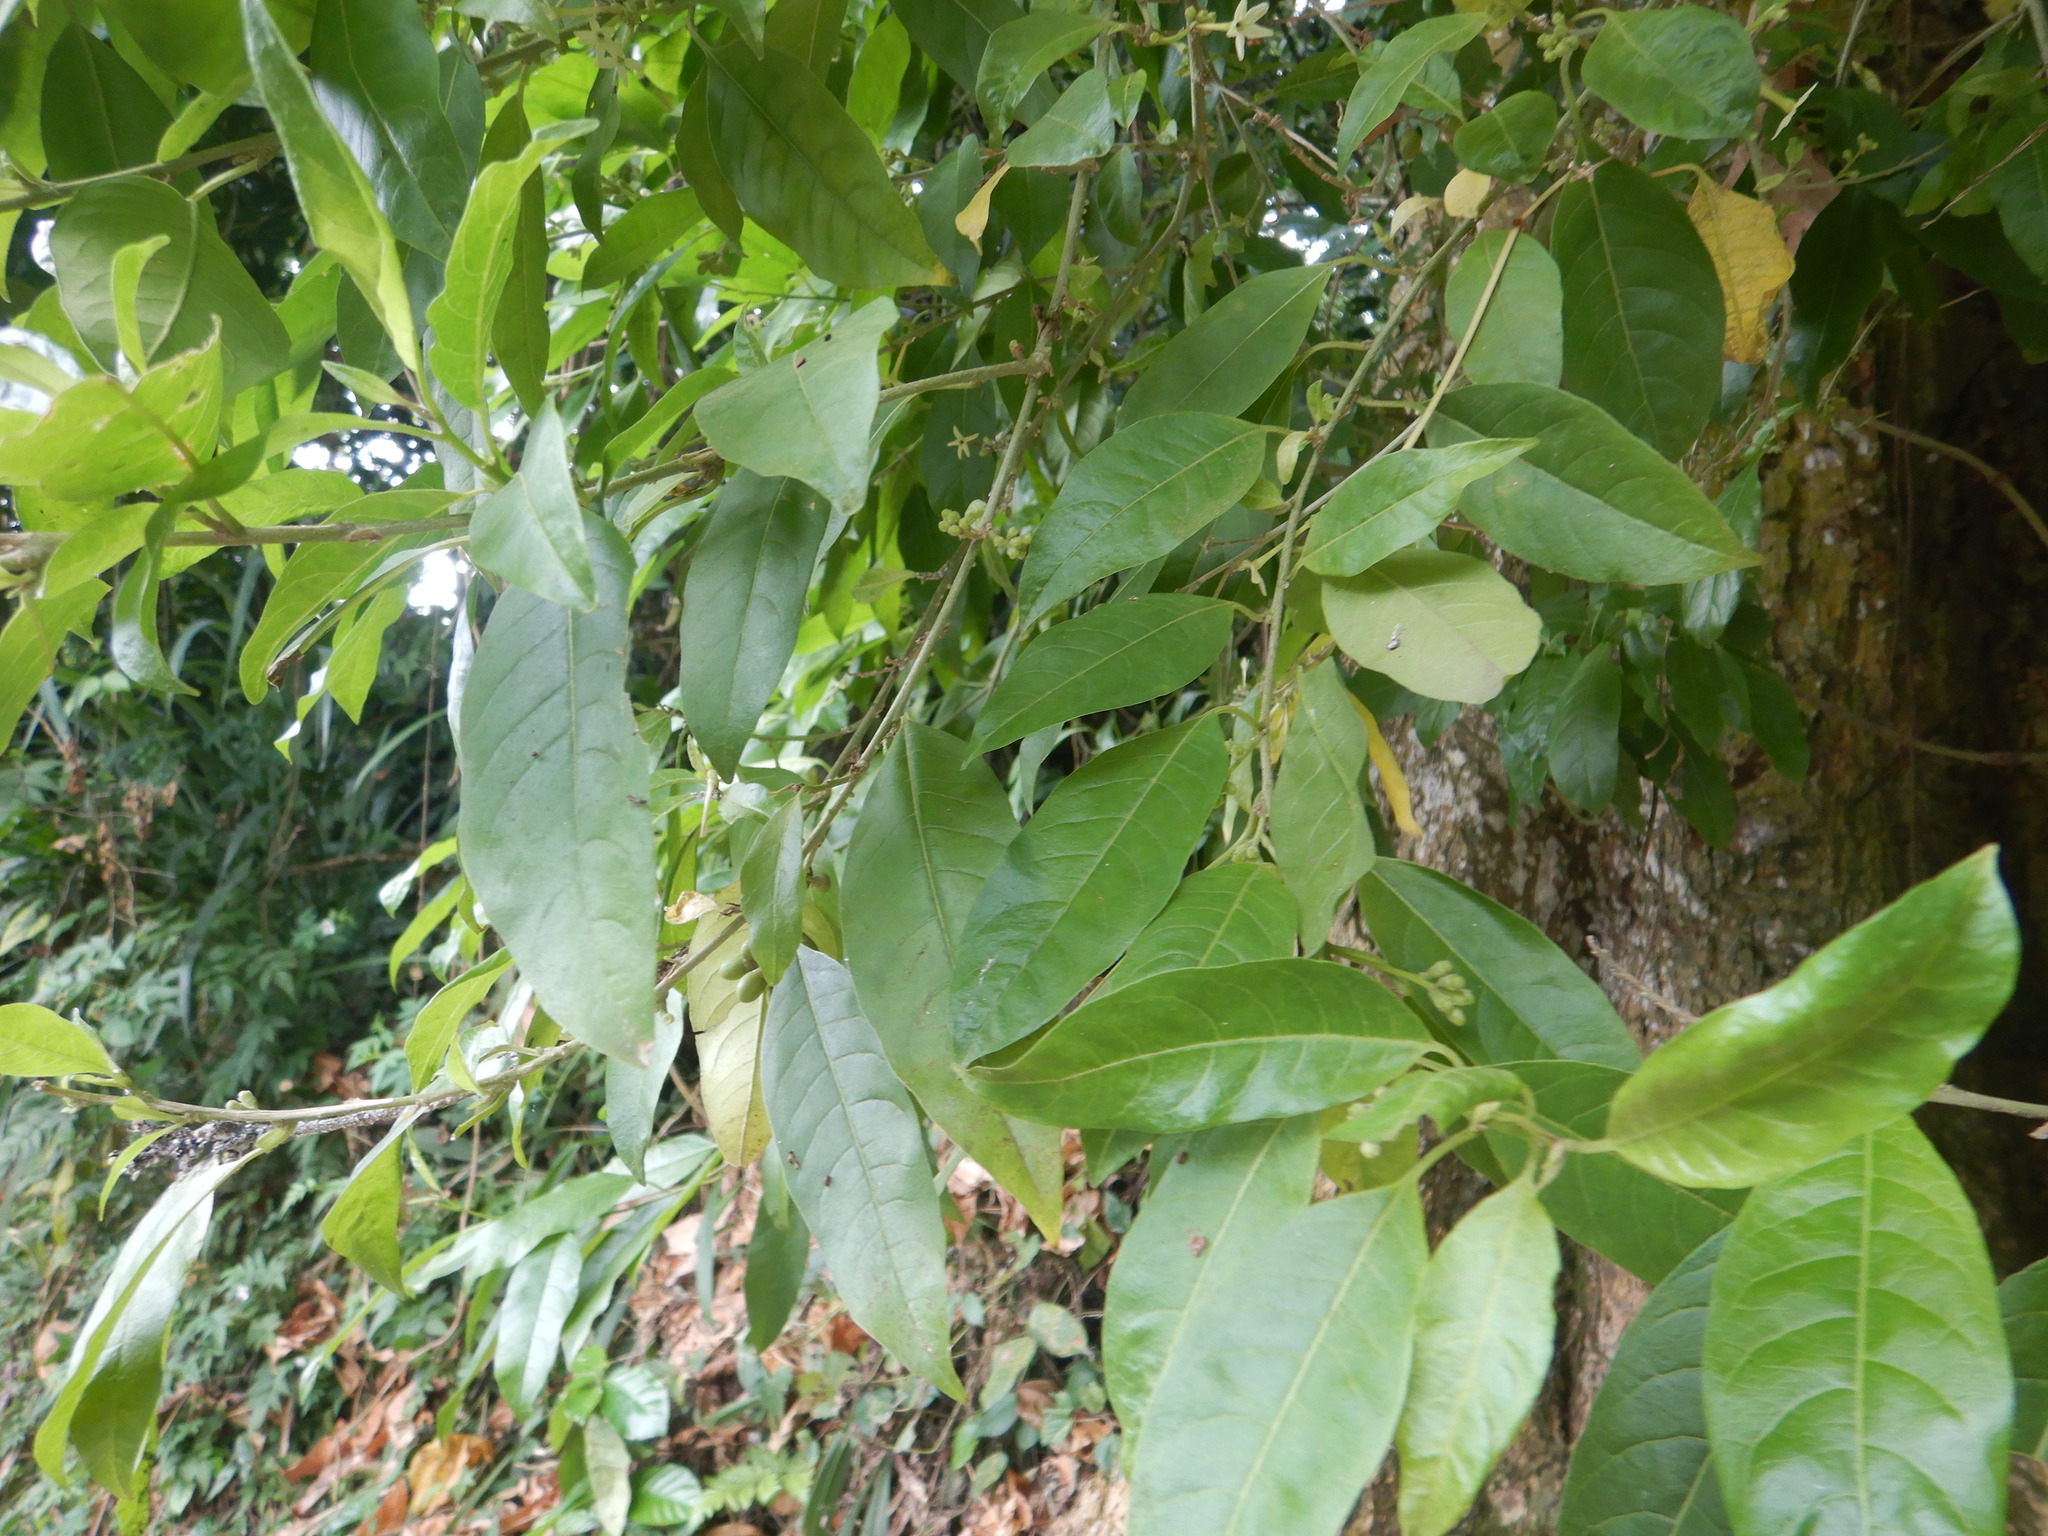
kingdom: Plantae
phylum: Tracheophyta
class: Magnoliopsida
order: Solanales
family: Solanaceae
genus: Cestrum
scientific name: Cestrum laevigatum
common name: Inkberry
